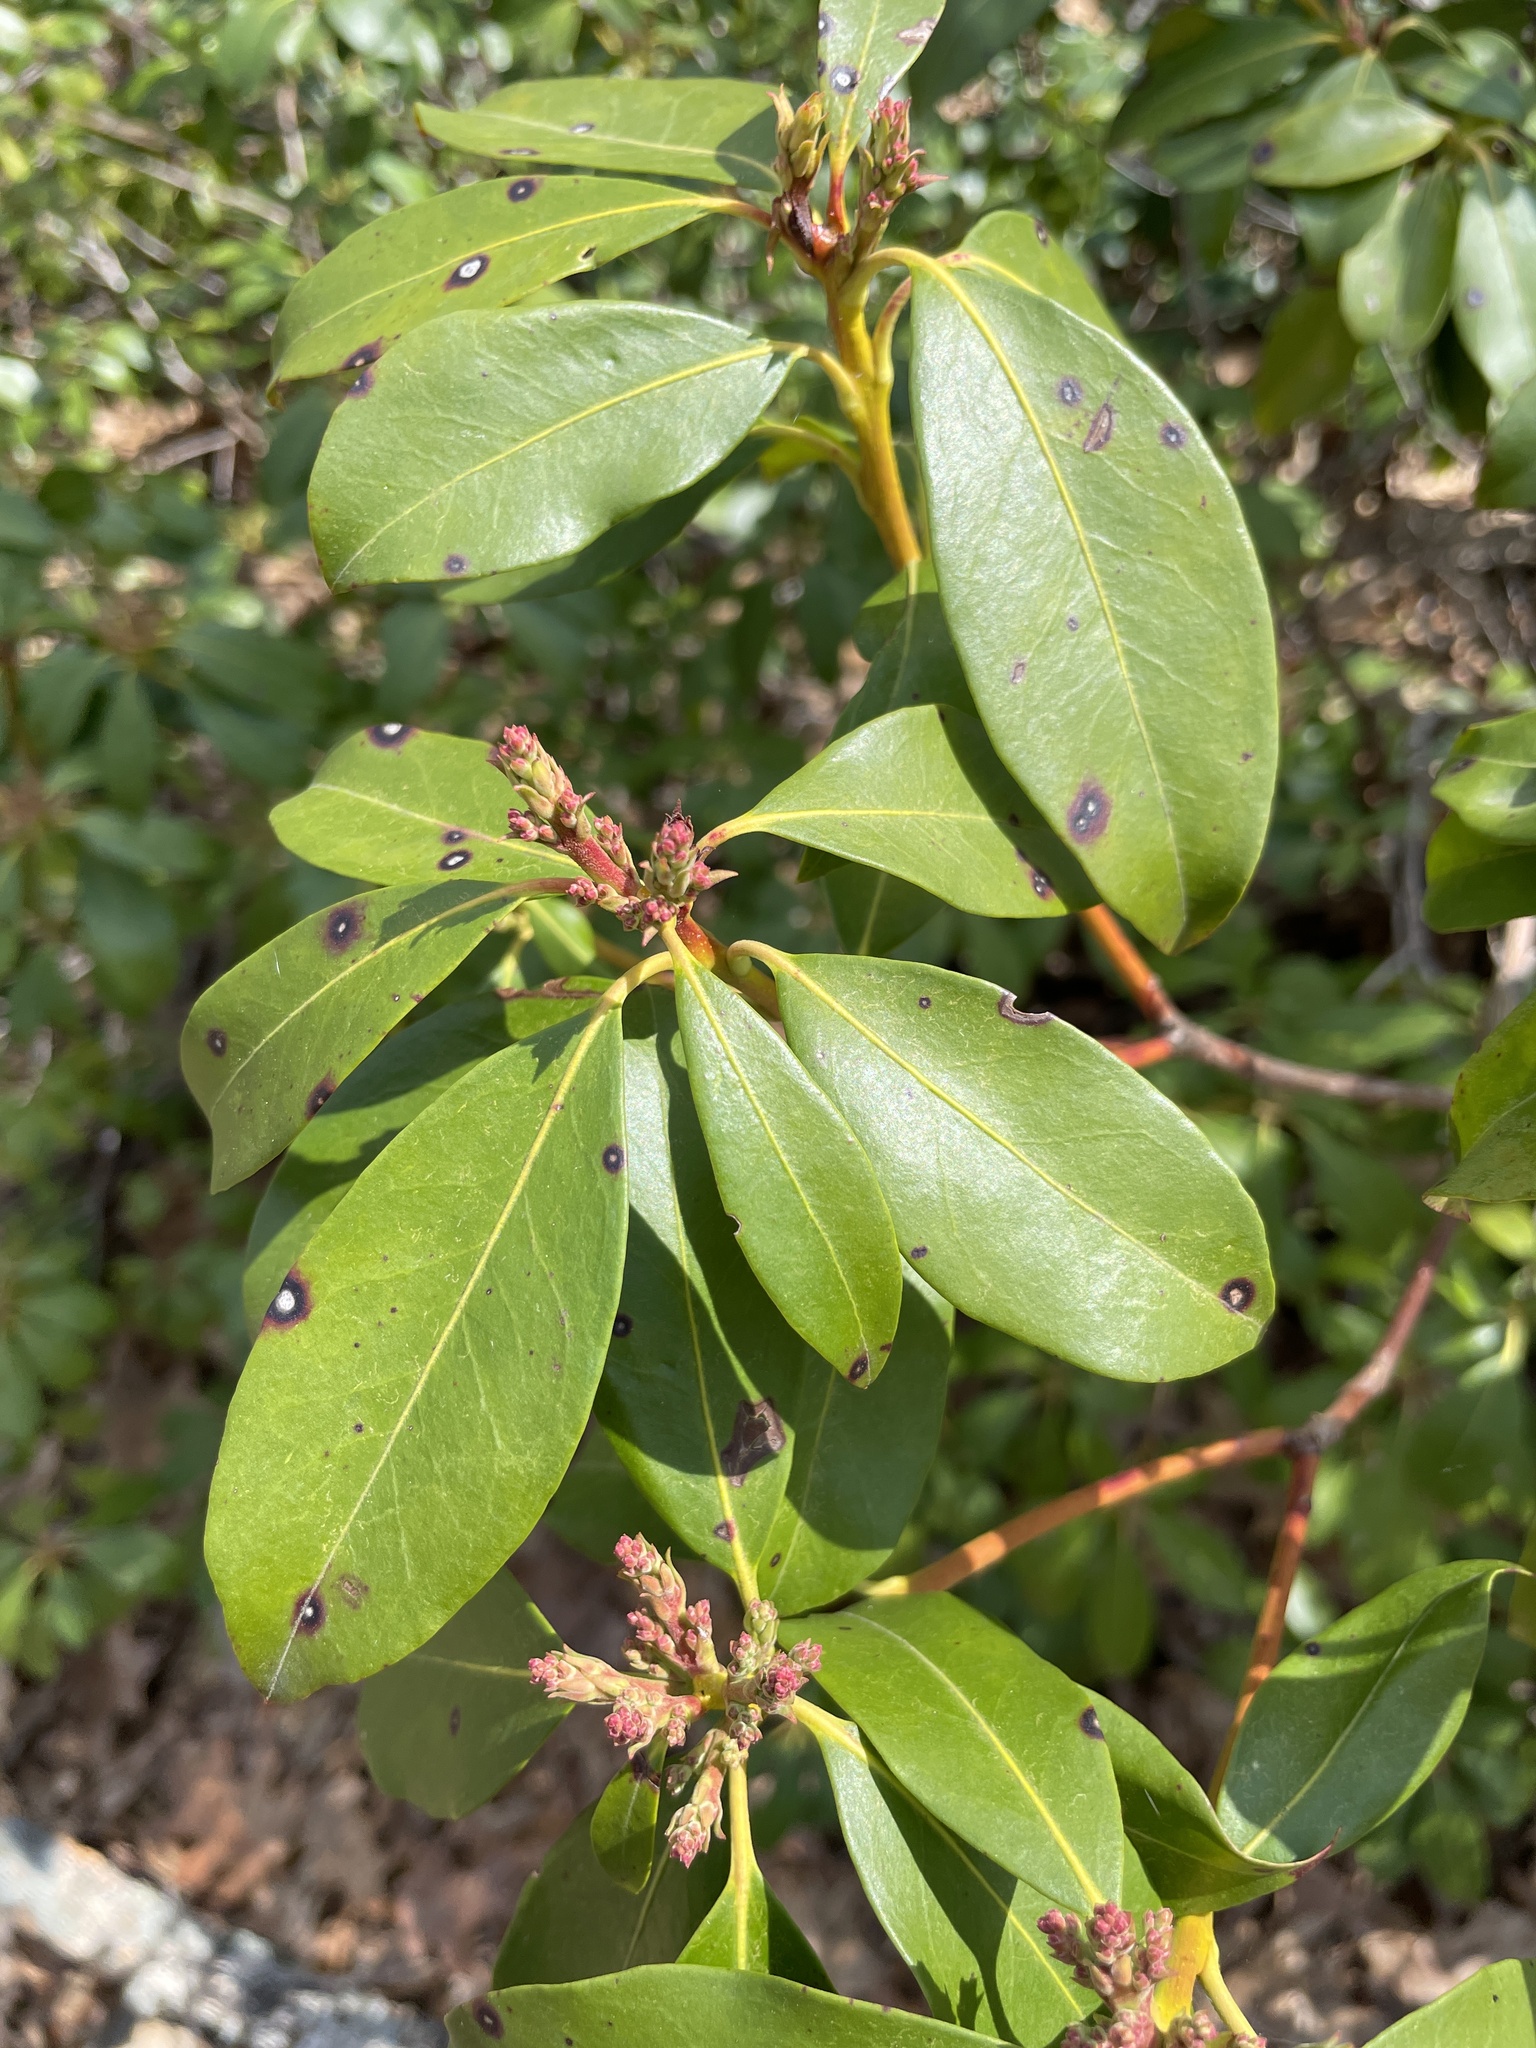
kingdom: Plantae
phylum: Tracheophyta
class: Magnoliopsida
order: Ericales
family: Ericaceae
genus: Kalmia
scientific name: Kalmia latifolia
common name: Mountain-laurel
